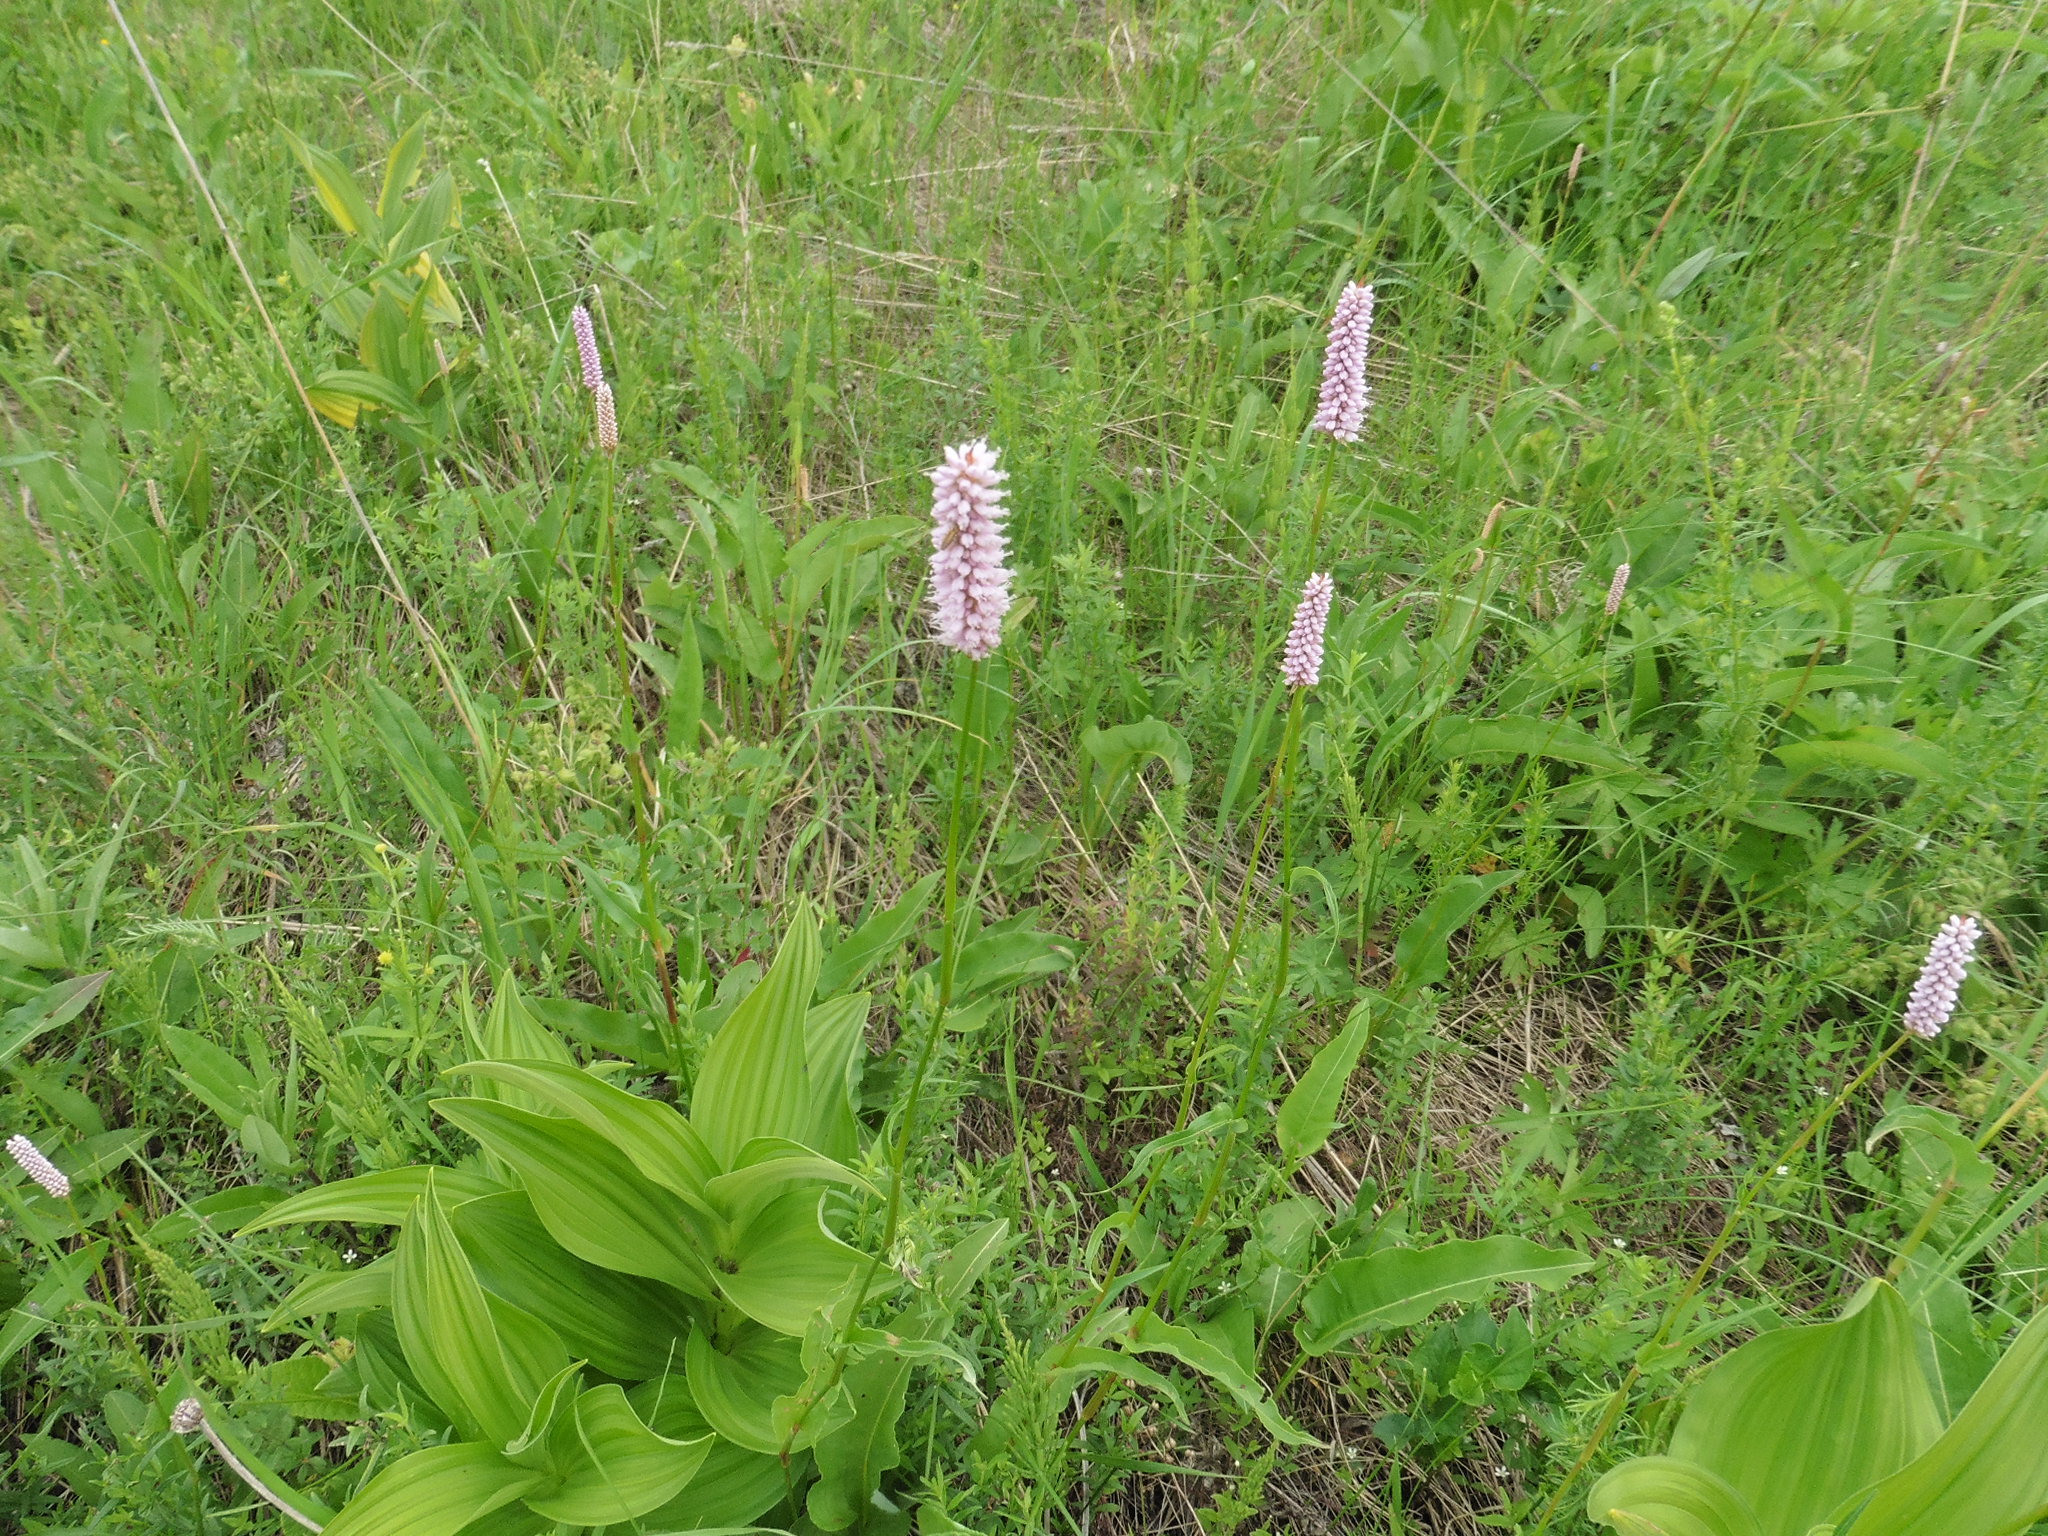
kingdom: Plantae
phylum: Tracheophyta
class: Magnoliopsida
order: Caryophyllales
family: Polygonaceae
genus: Bistorta
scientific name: Bistorta officinalis
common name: Common bistort
